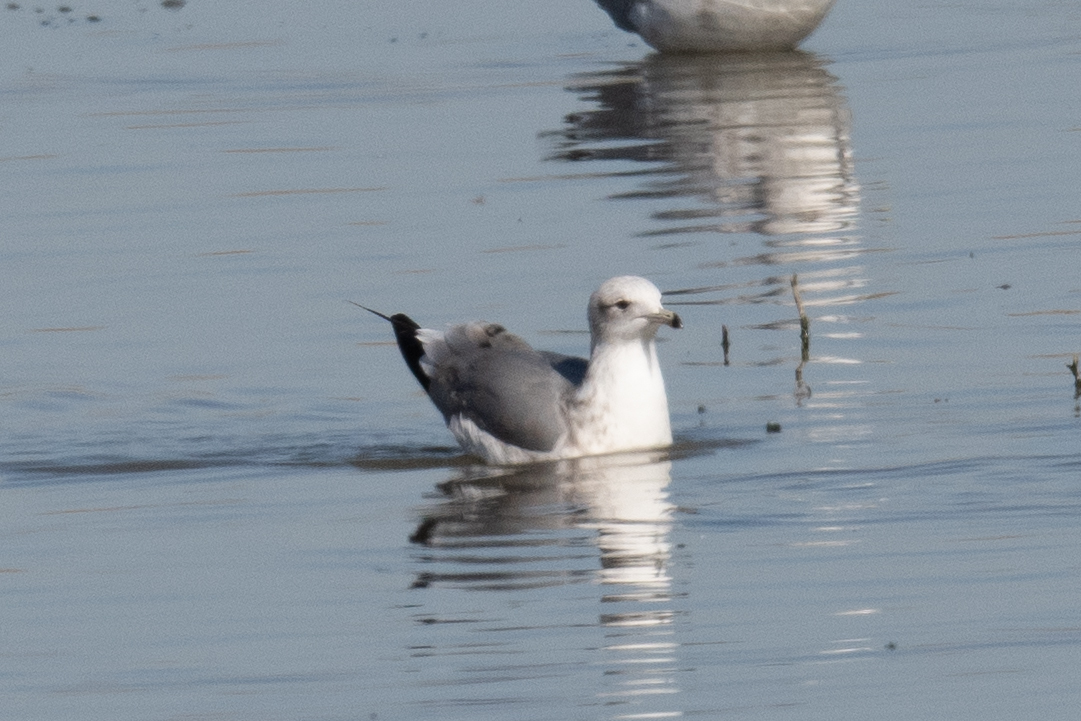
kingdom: Animalia
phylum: Chordata
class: Aves
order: Charadriiformes
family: Laridae
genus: Larus
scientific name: Larus californicus
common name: California gull
